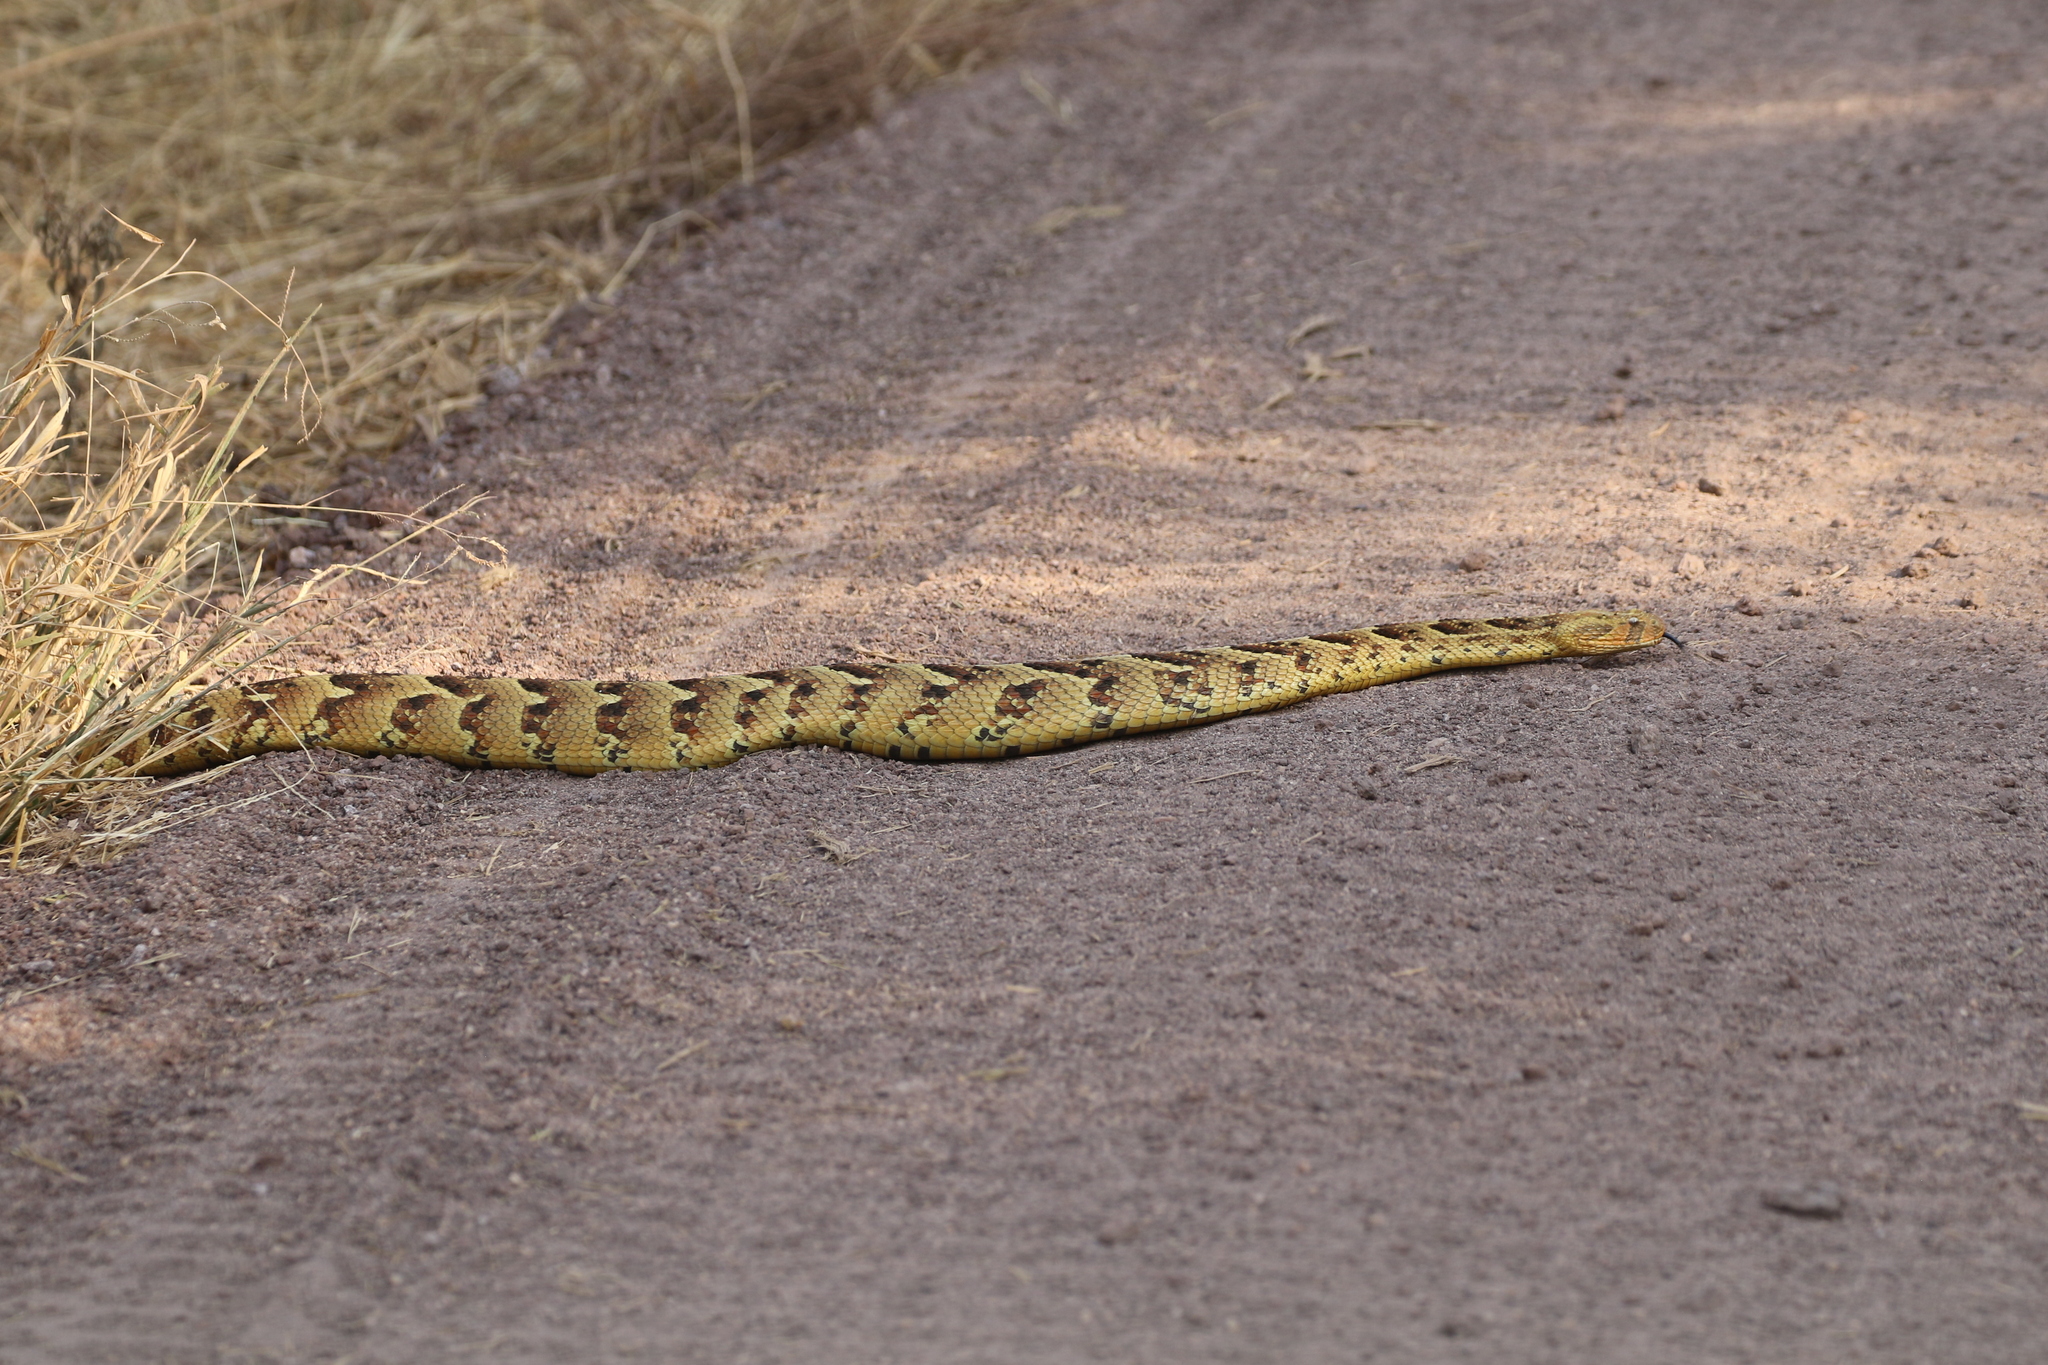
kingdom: Animalia
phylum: Chordata
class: Squamata
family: Viperidae
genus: Bitis
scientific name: Bitis arietans
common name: Puff adder
